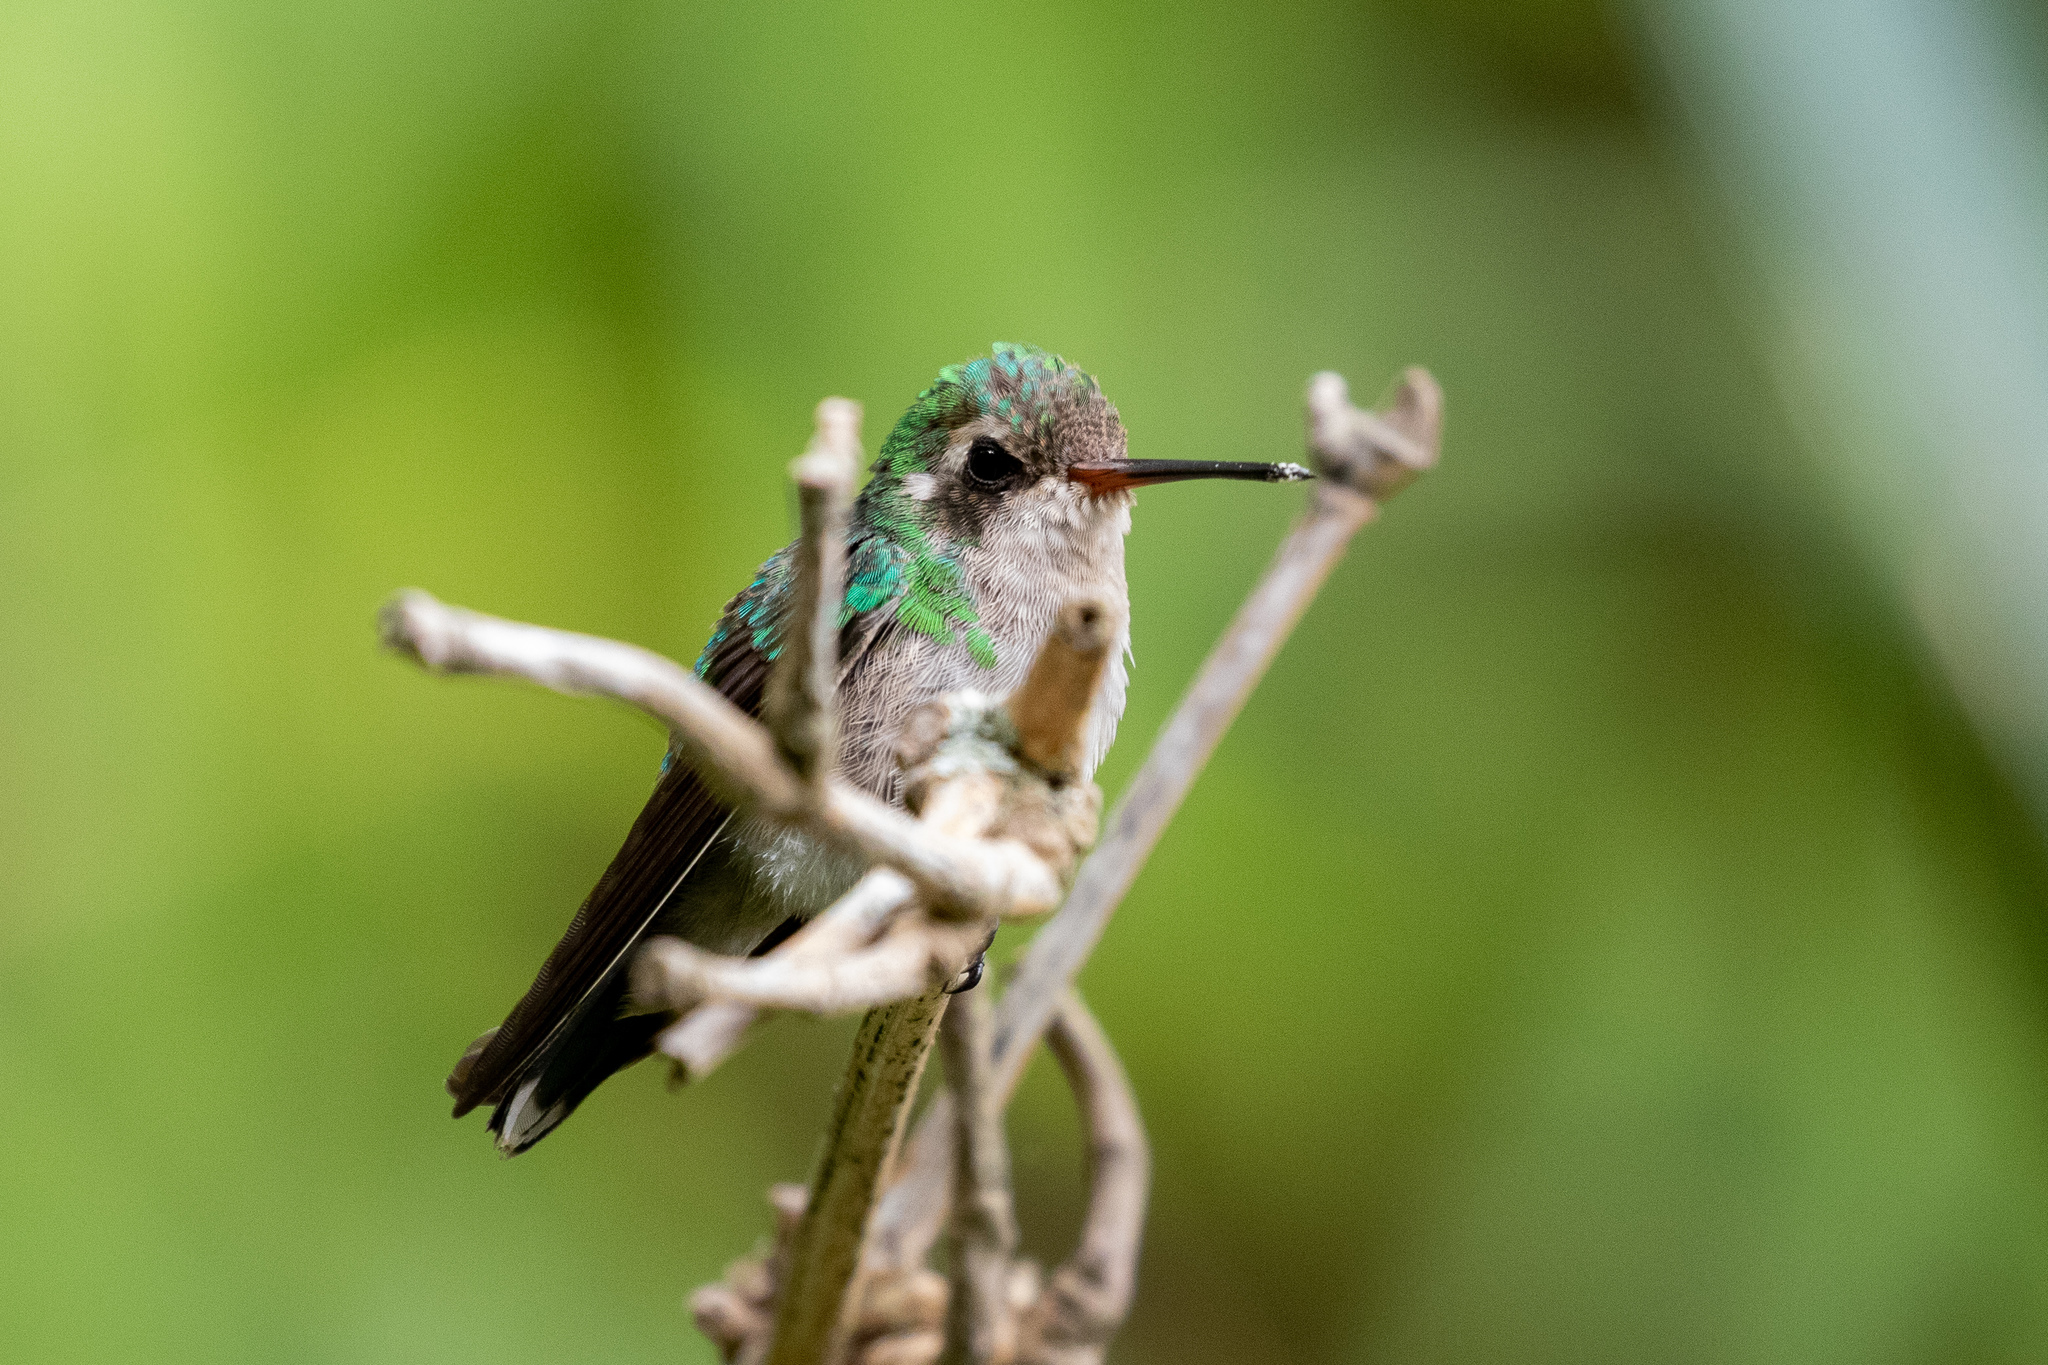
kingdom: Animalia
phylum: Chordata
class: Aves
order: Apodiformes
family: Trochilidae
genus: Chlorostilbon
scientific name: Chlorostilbon lucidus
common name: Glittering-bellied emerald
